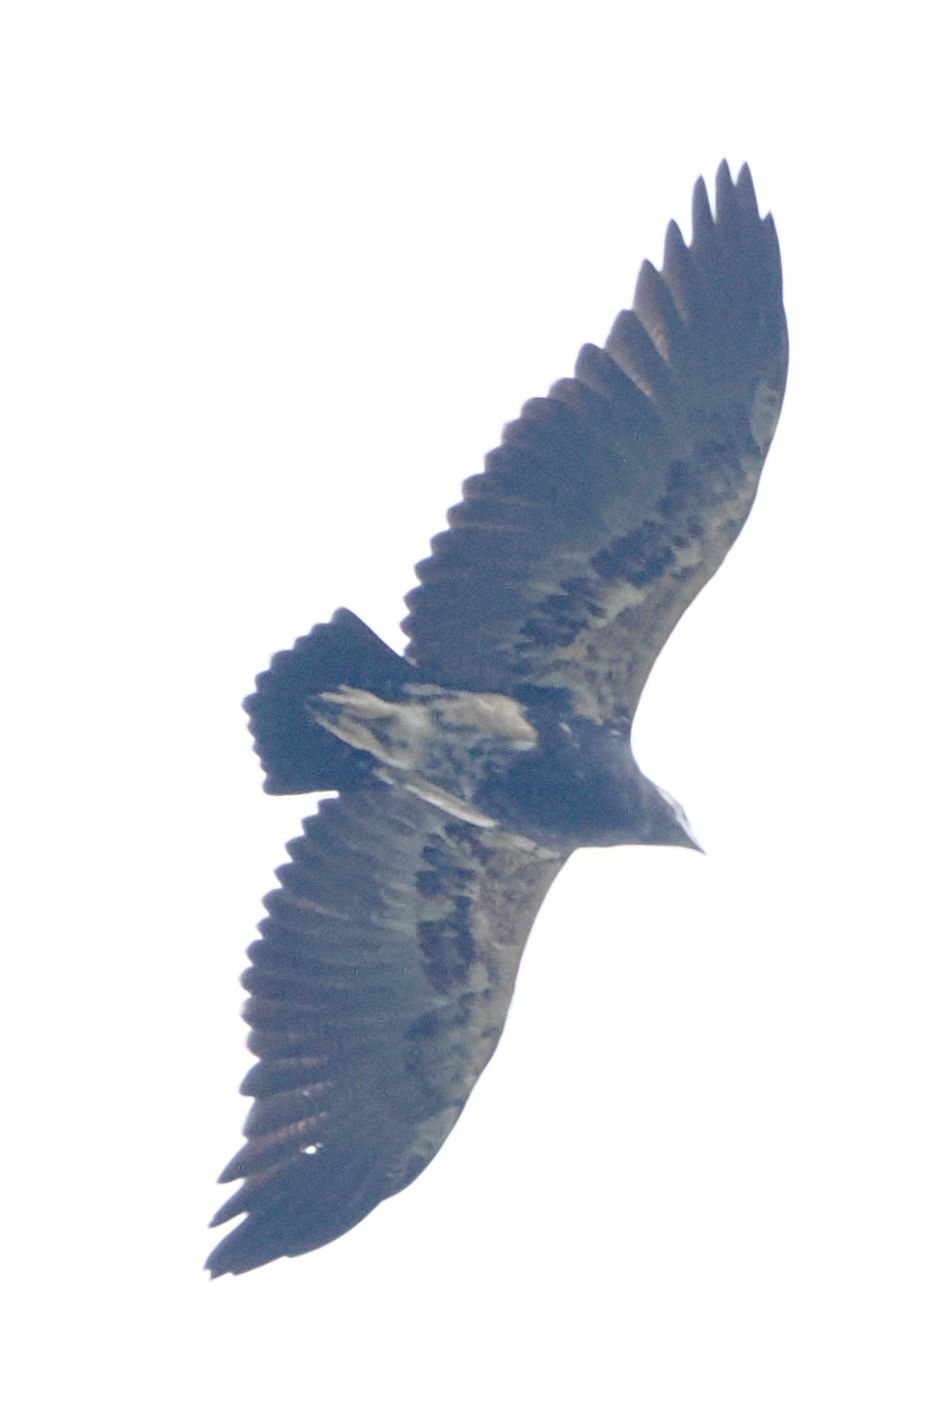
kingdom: Animalia
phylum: Chordata
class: Aves
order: Accipitriformes
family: Accipitridae
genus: Geranoaetus
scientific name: Geranoaetus melanoleucus
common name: Black-chested buzzard-eagle
